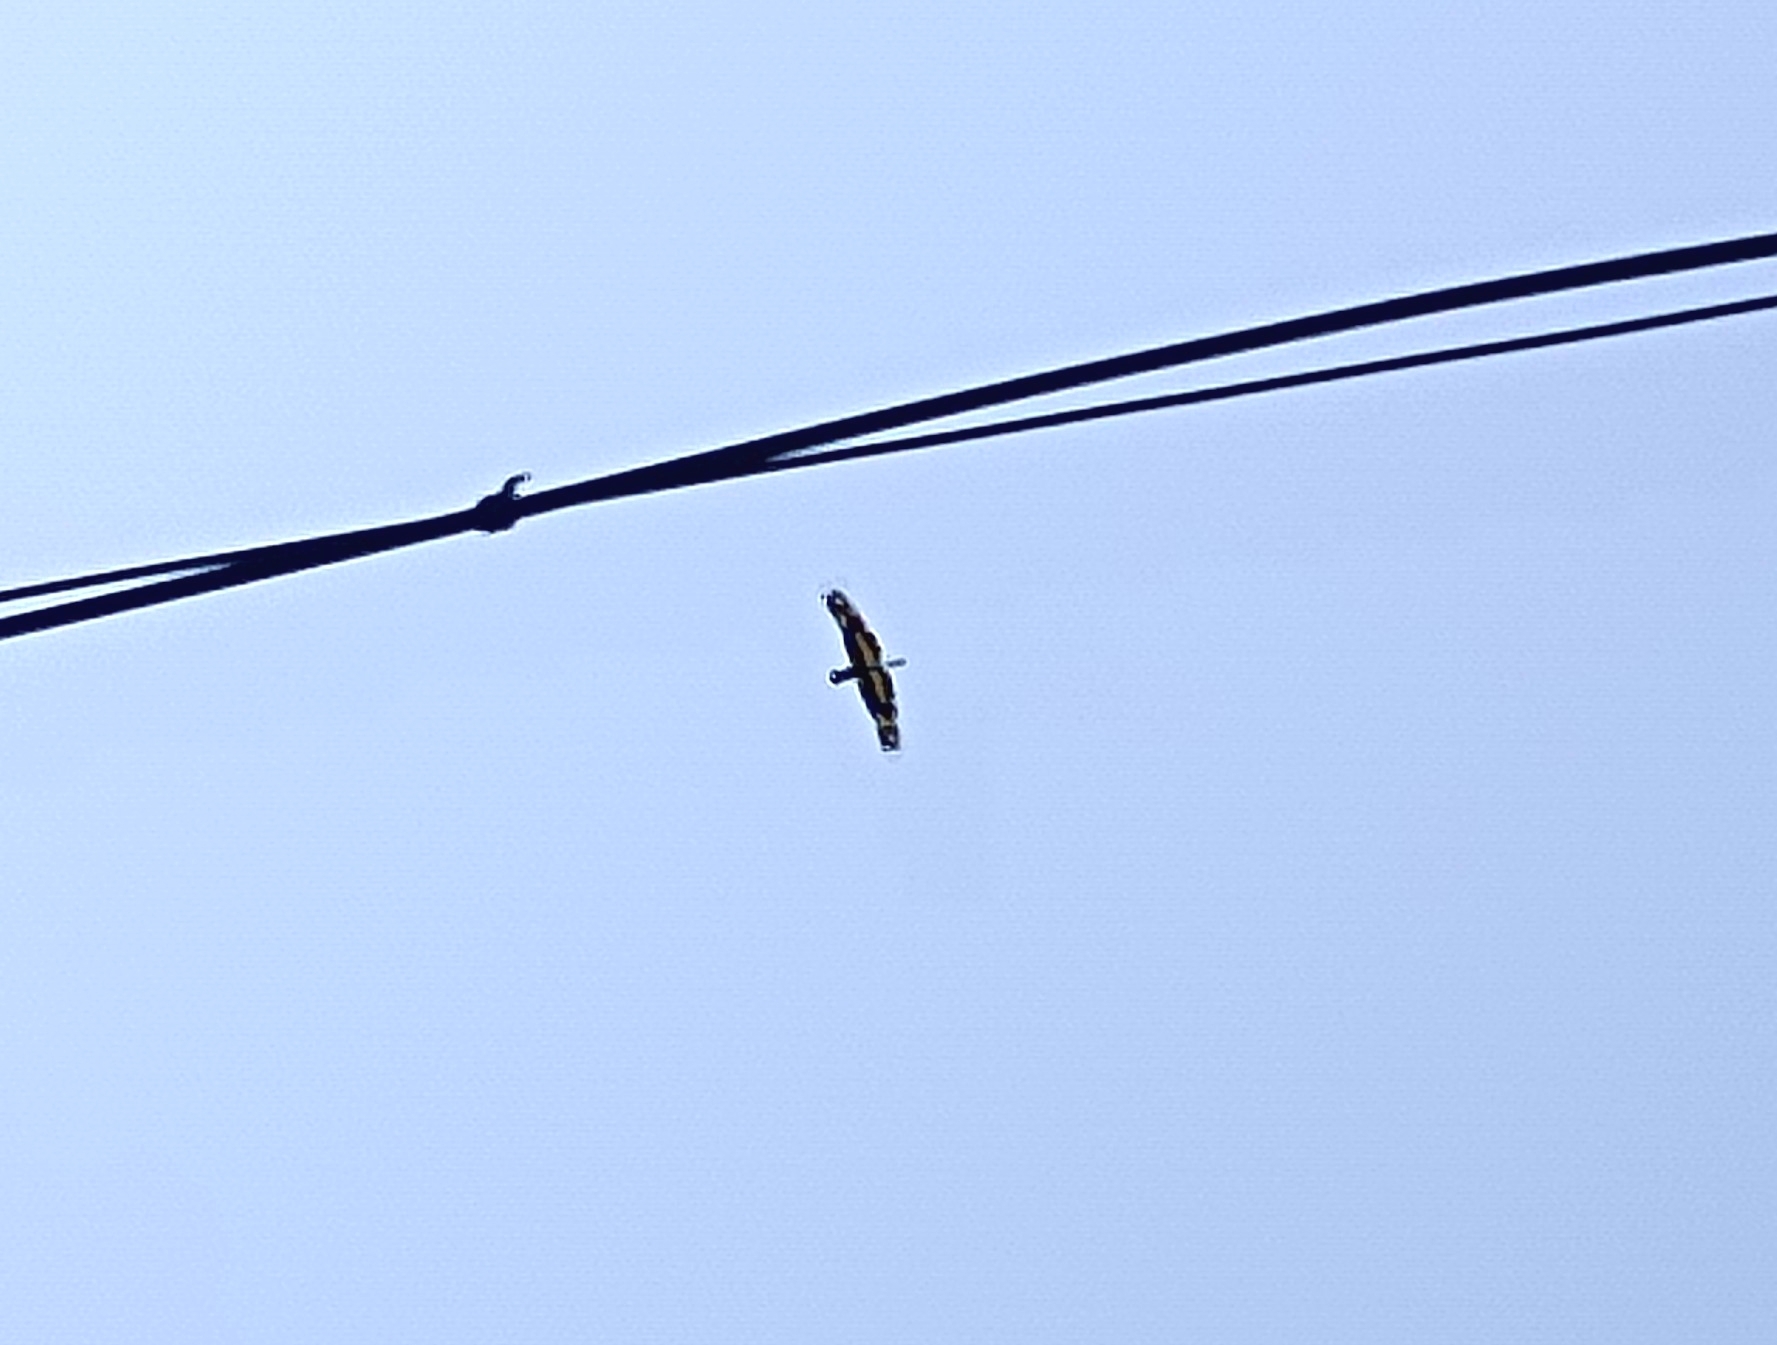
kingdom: Animalia
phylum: Arthropoda
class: Insecta
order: Odonata
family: Libellulidae
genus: Rhyothemis
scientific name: Rhyothemis variegata
